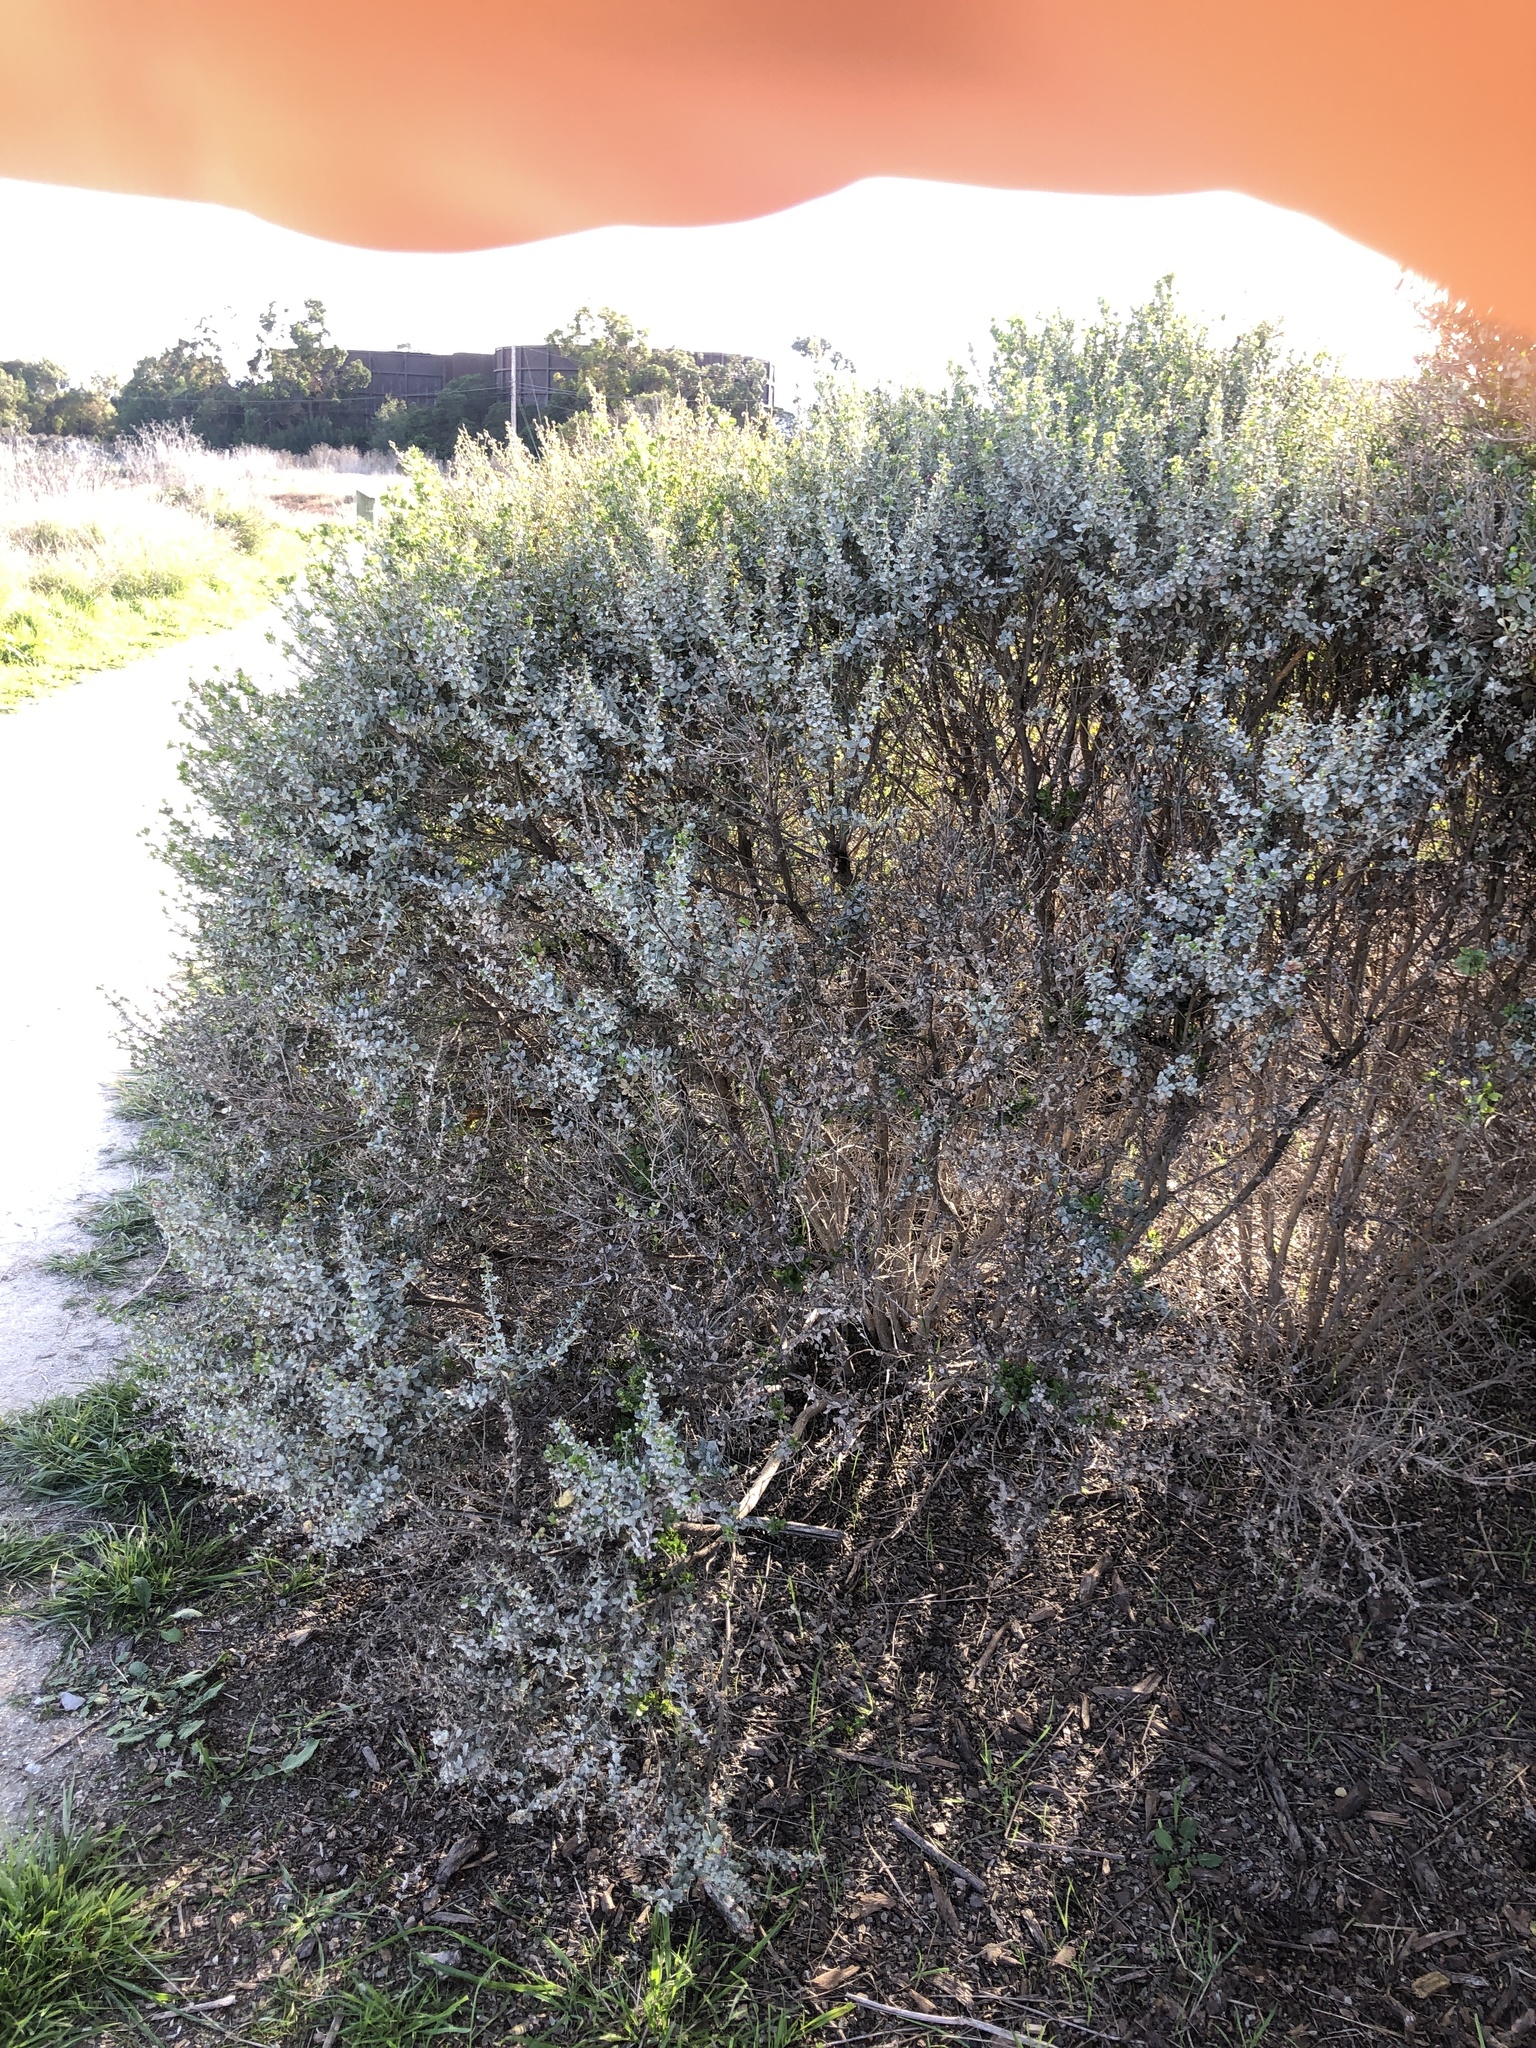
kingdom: Fungi
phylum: Basidiomycota
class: Pucciniomycetes
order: Pucciniales
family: Pucciniaceae
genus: Eriosporangium
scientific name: Eriosporangium evadens
